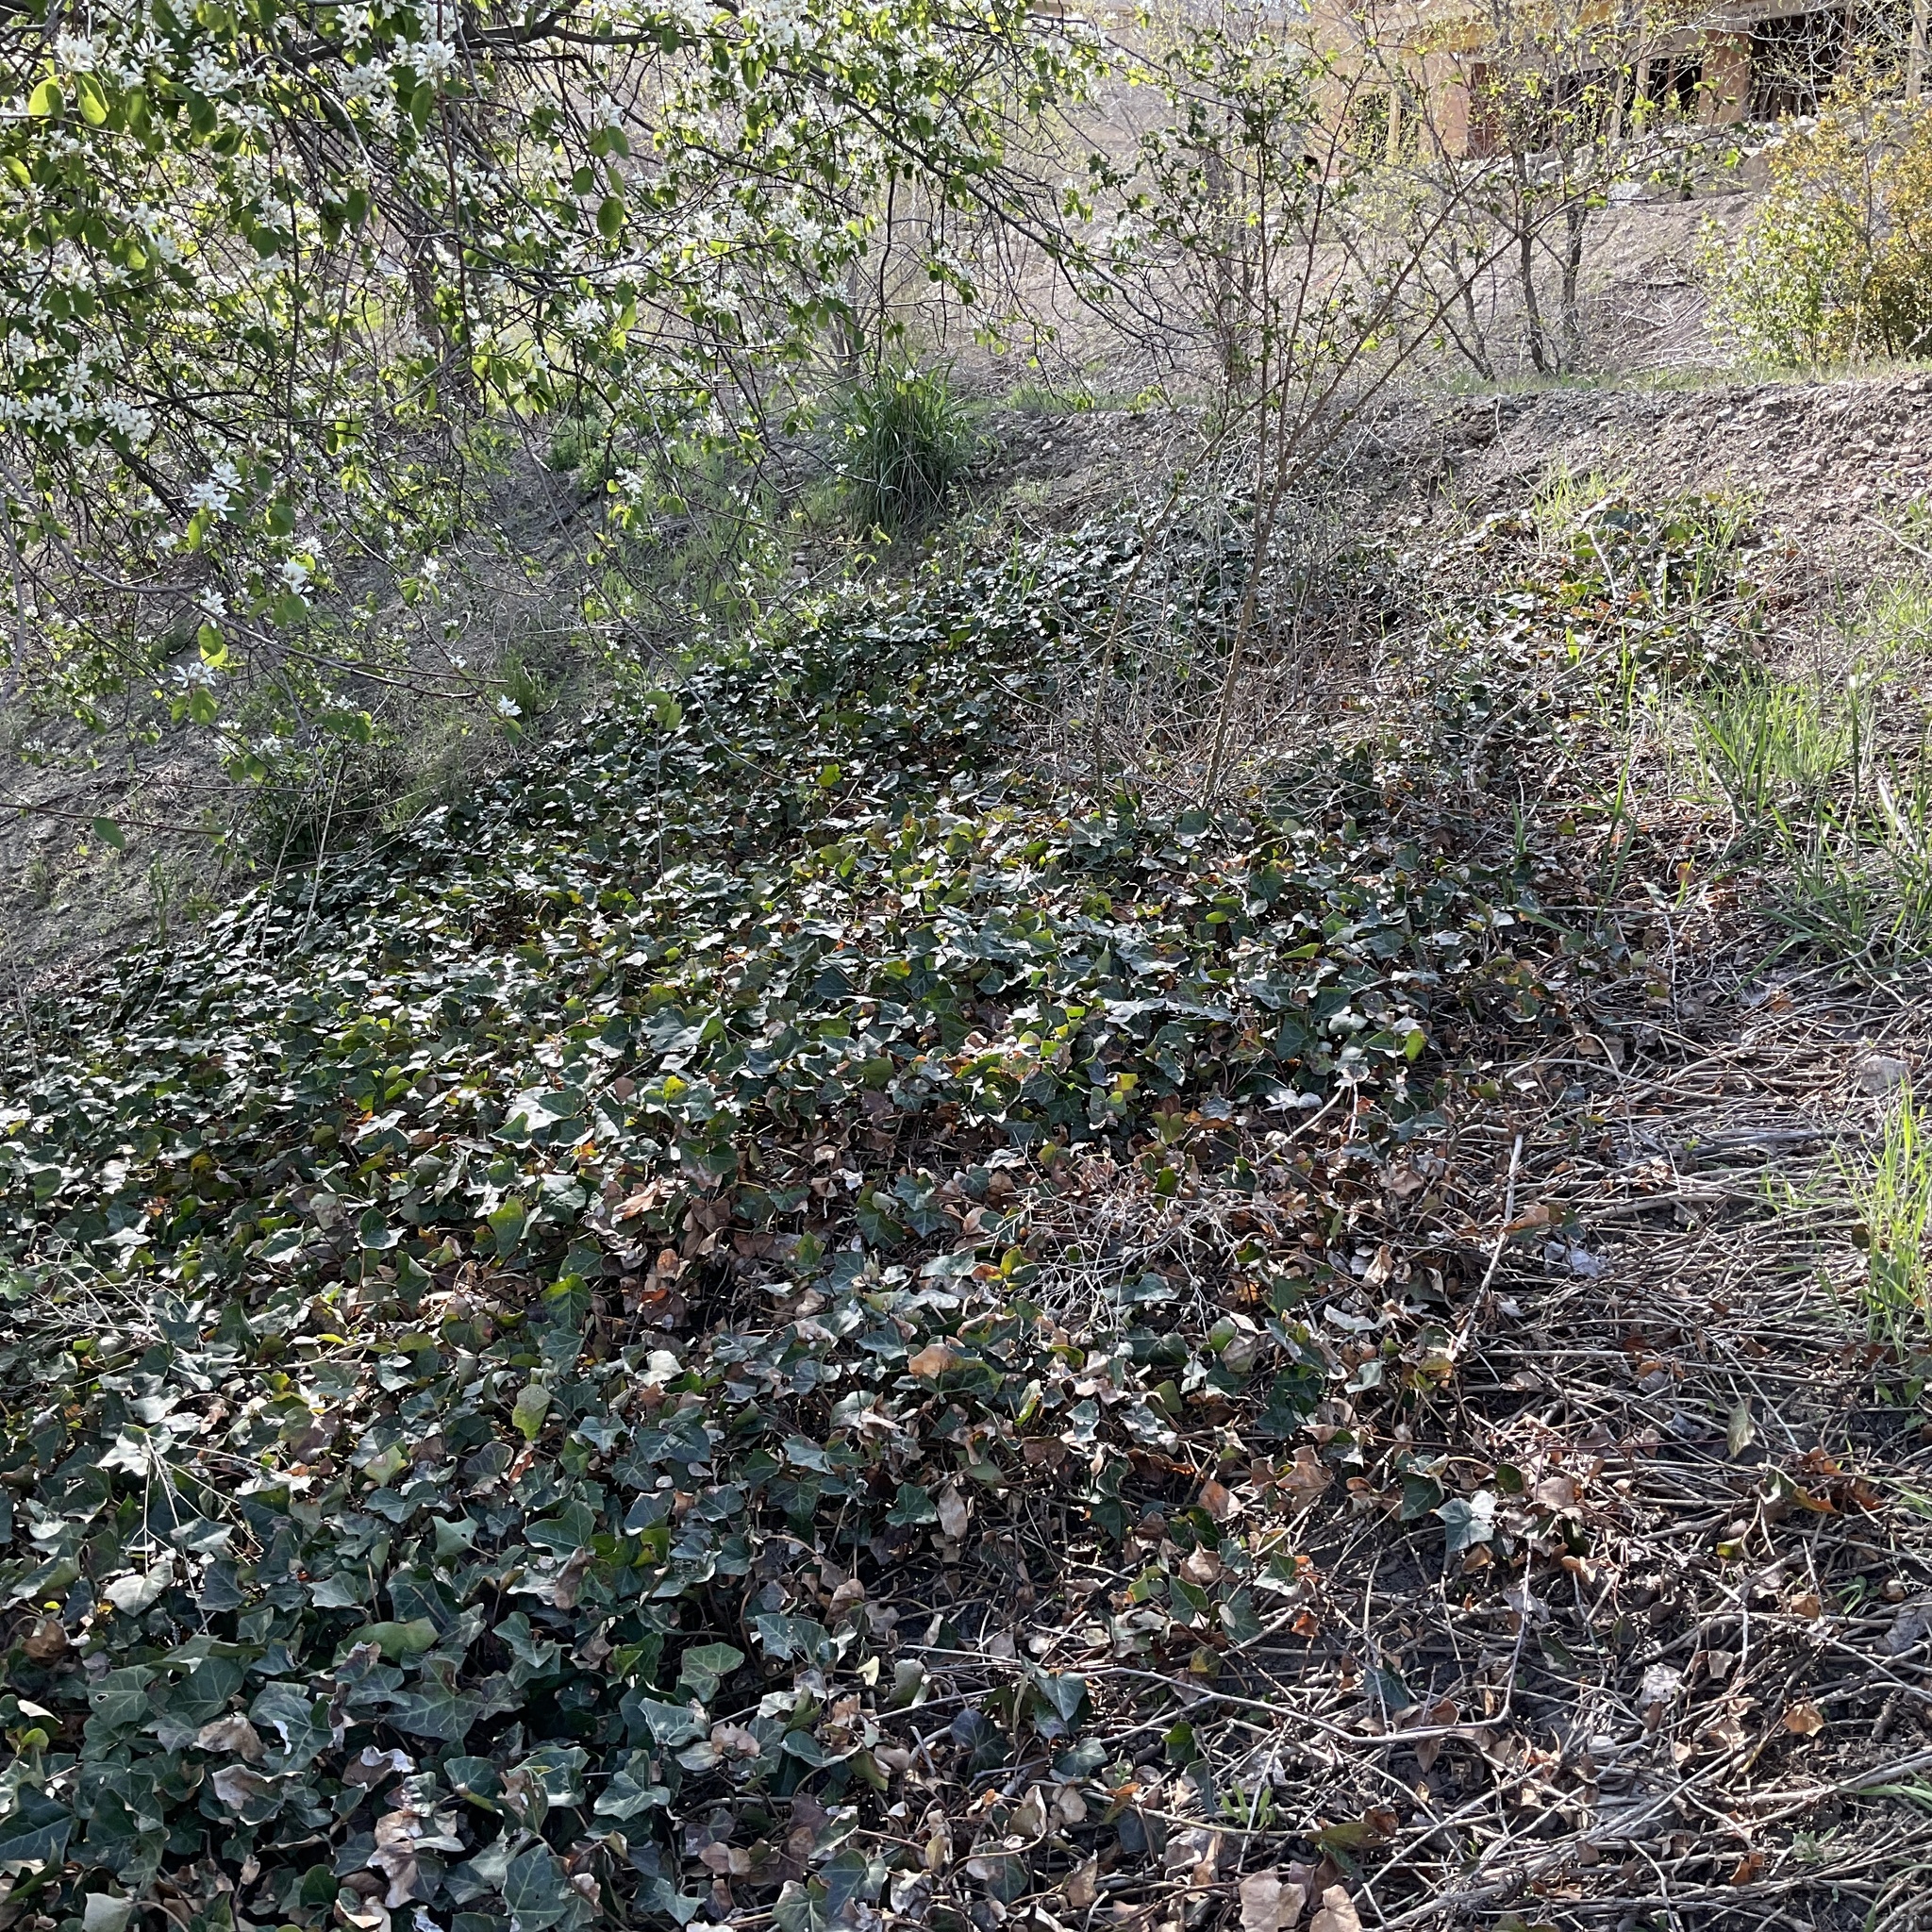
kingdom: Plantae
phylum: Tracheophyta
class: Magnoliopsida
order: Apiales
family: Araliaceae
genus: Hedera
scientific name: Hedera helix
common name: Ivy
